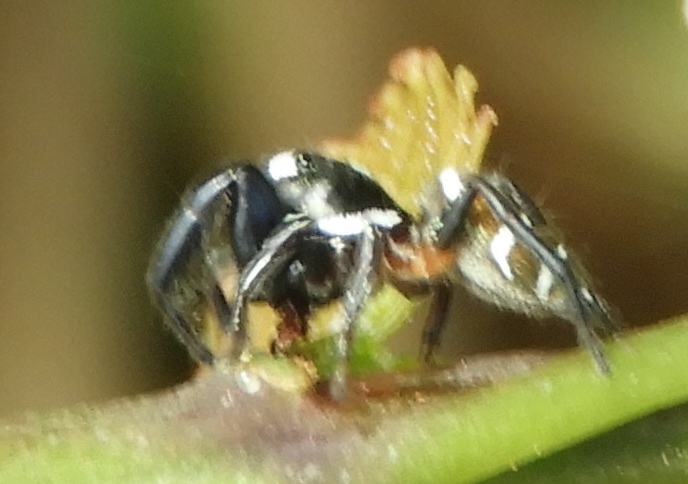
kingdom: Animalia
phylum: Arthropoda
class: Arachnida
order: Araneae
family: Salticidae
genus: Sassacus
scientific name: Sassacus
